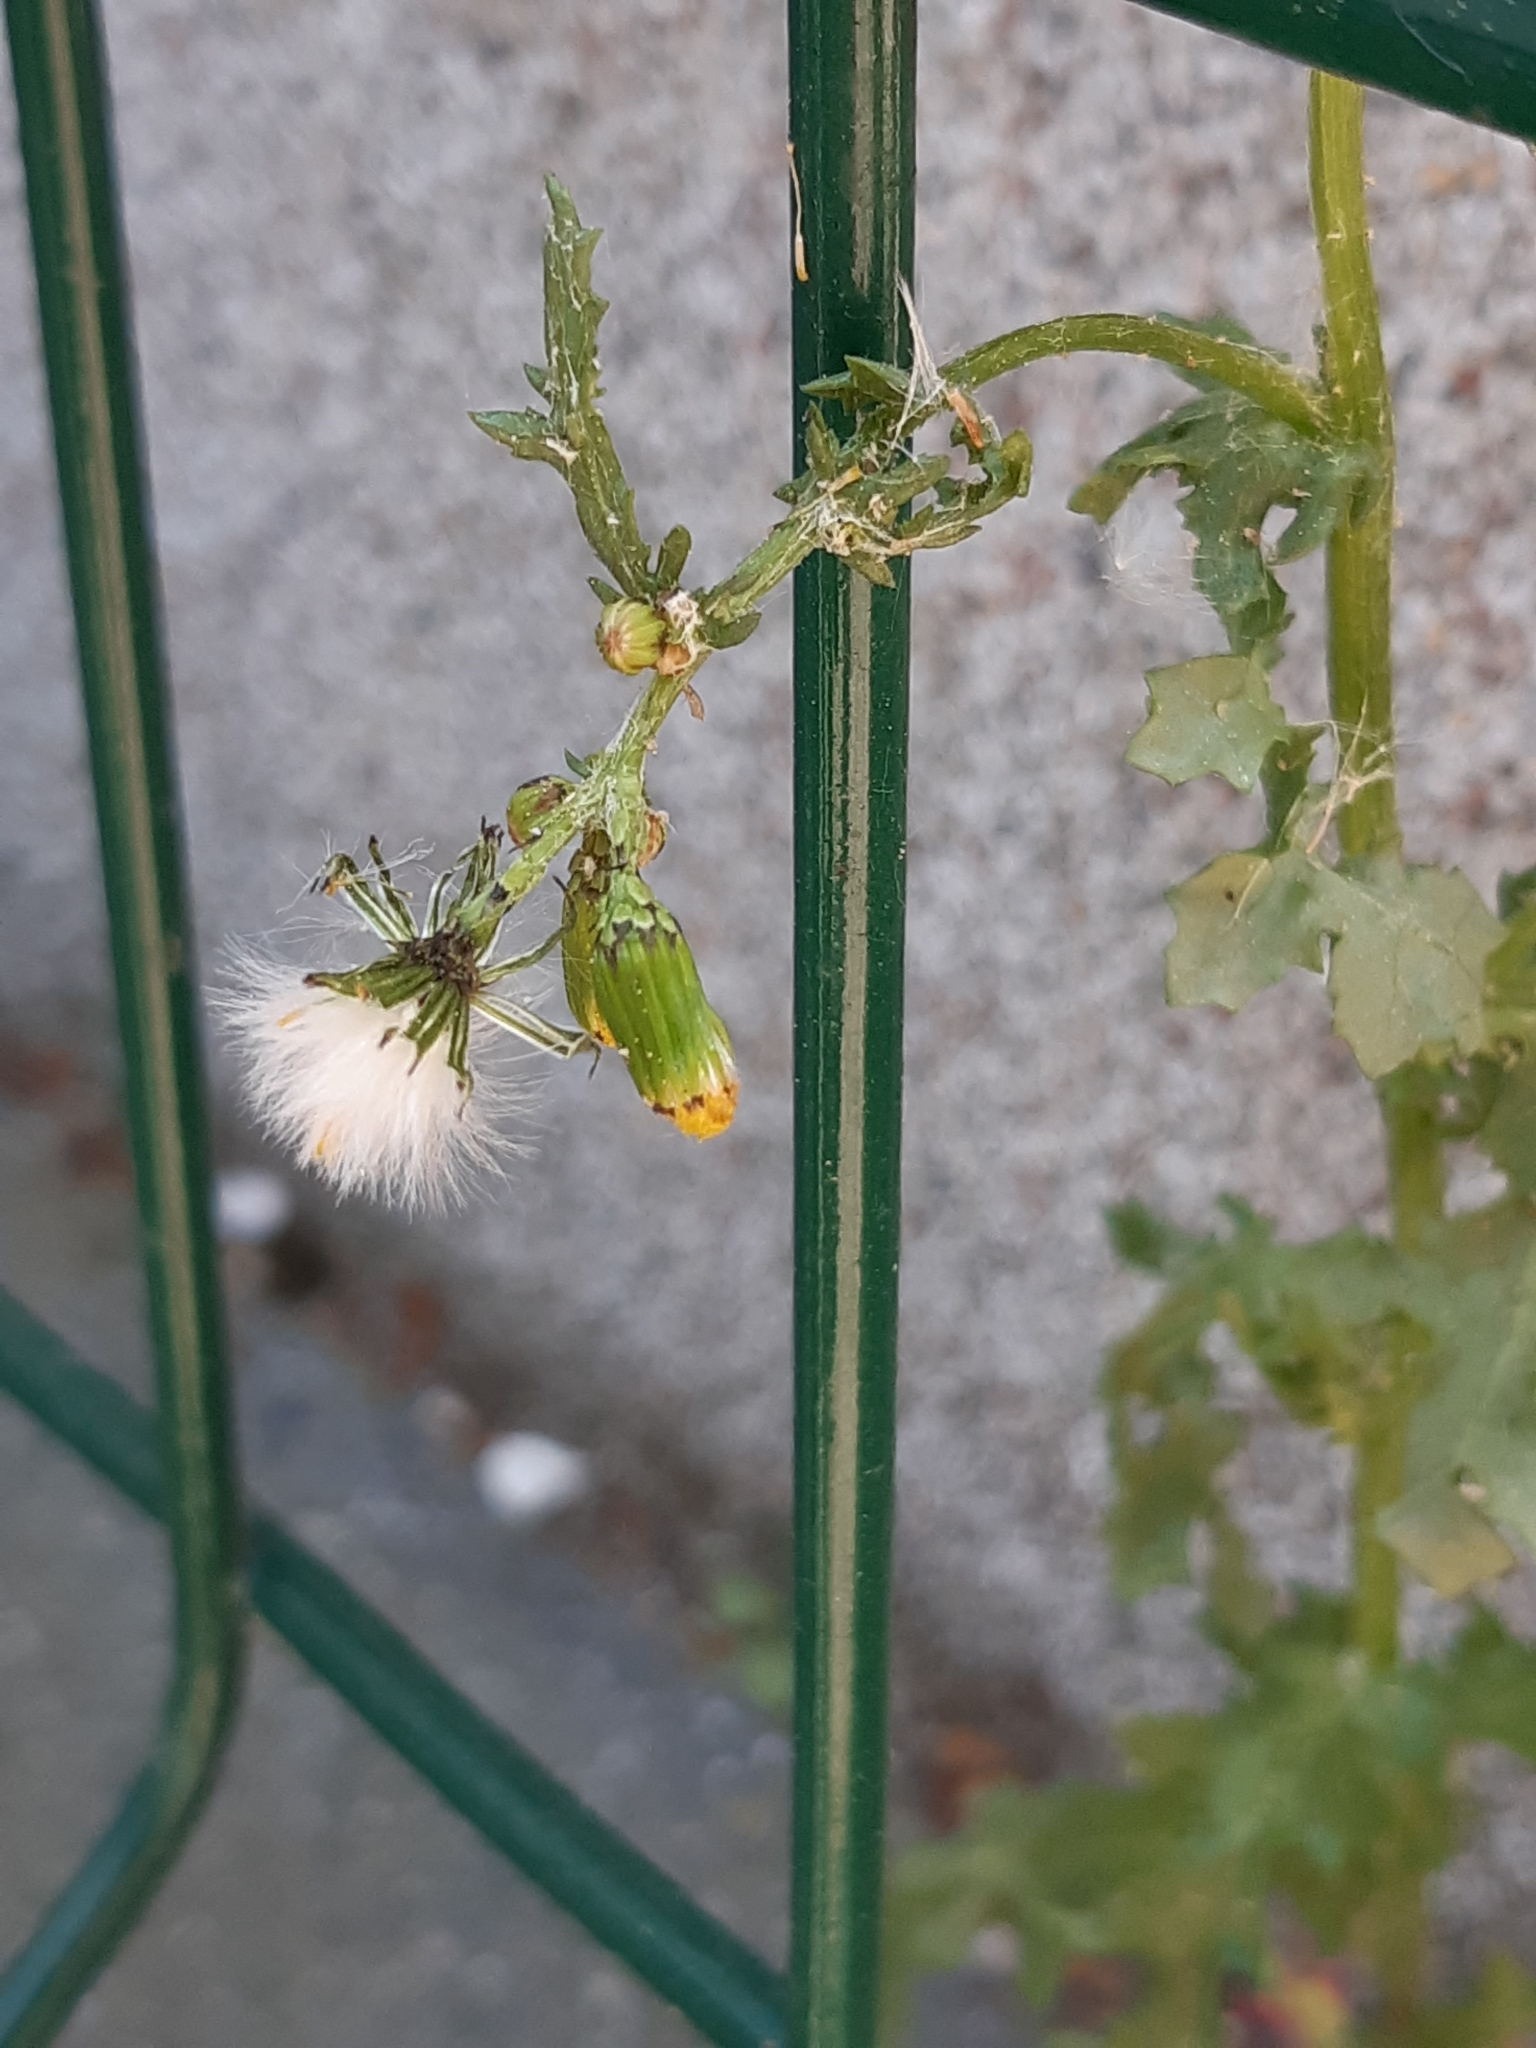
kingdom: Plantae
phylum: Tracheophyta
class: Magnoliopsida
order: Asterales
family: Asteraceae
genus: Senecio
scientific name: Senecio vulgaris
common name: Old-man-in-the-spring
